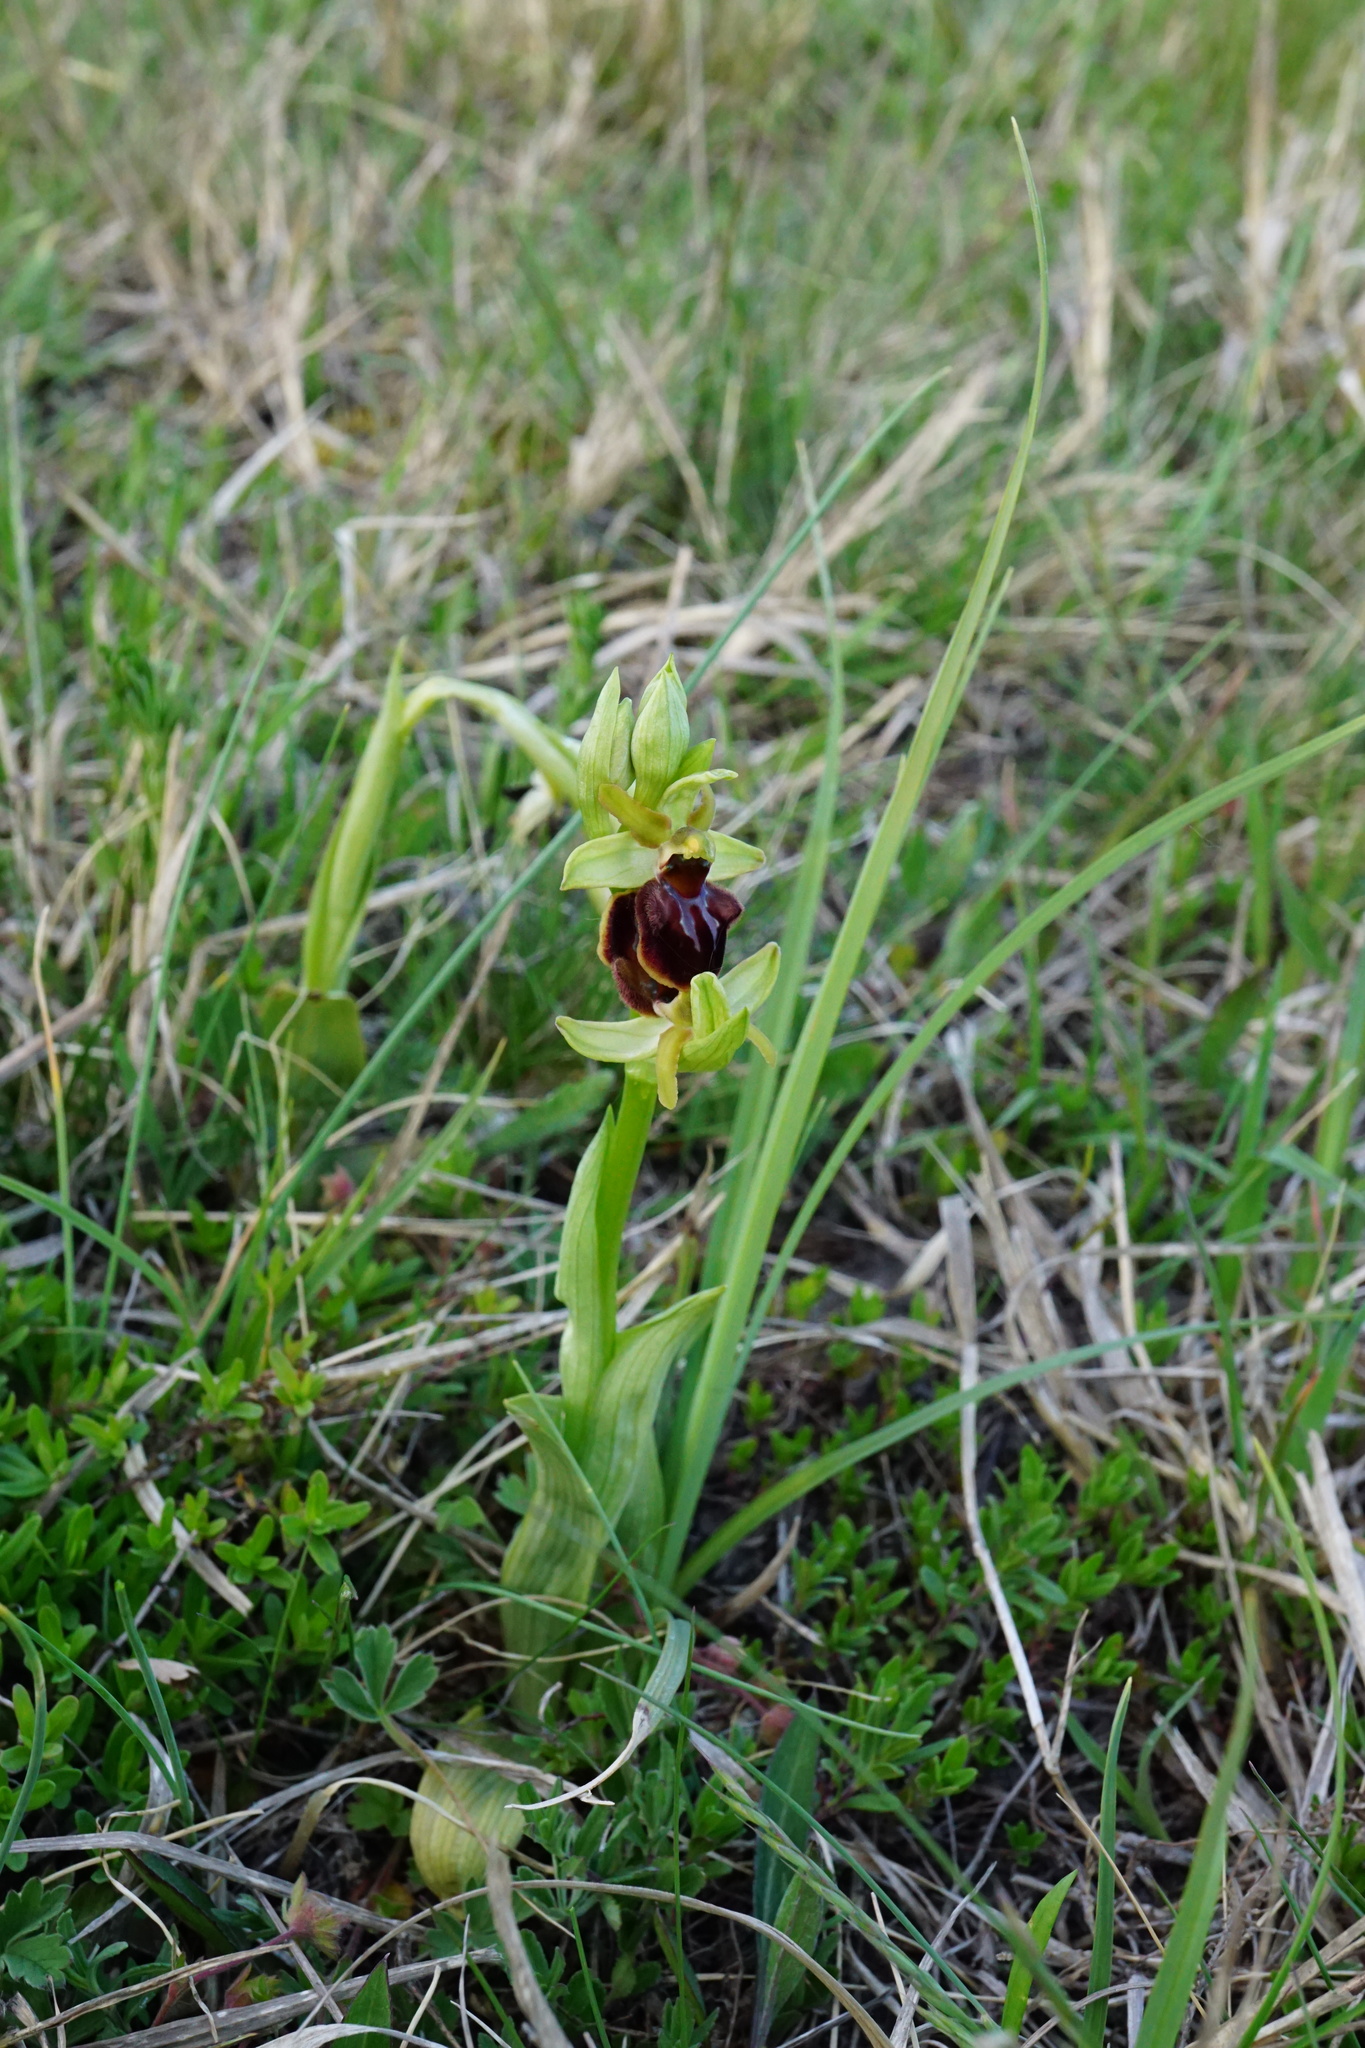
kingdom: Plantae
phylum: Tracheophyta
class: Liliopsida
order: Asparagales
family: Orchidaceae
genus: Ophrys
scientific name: Ophrys sphegodes
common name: Early spider-orchid
